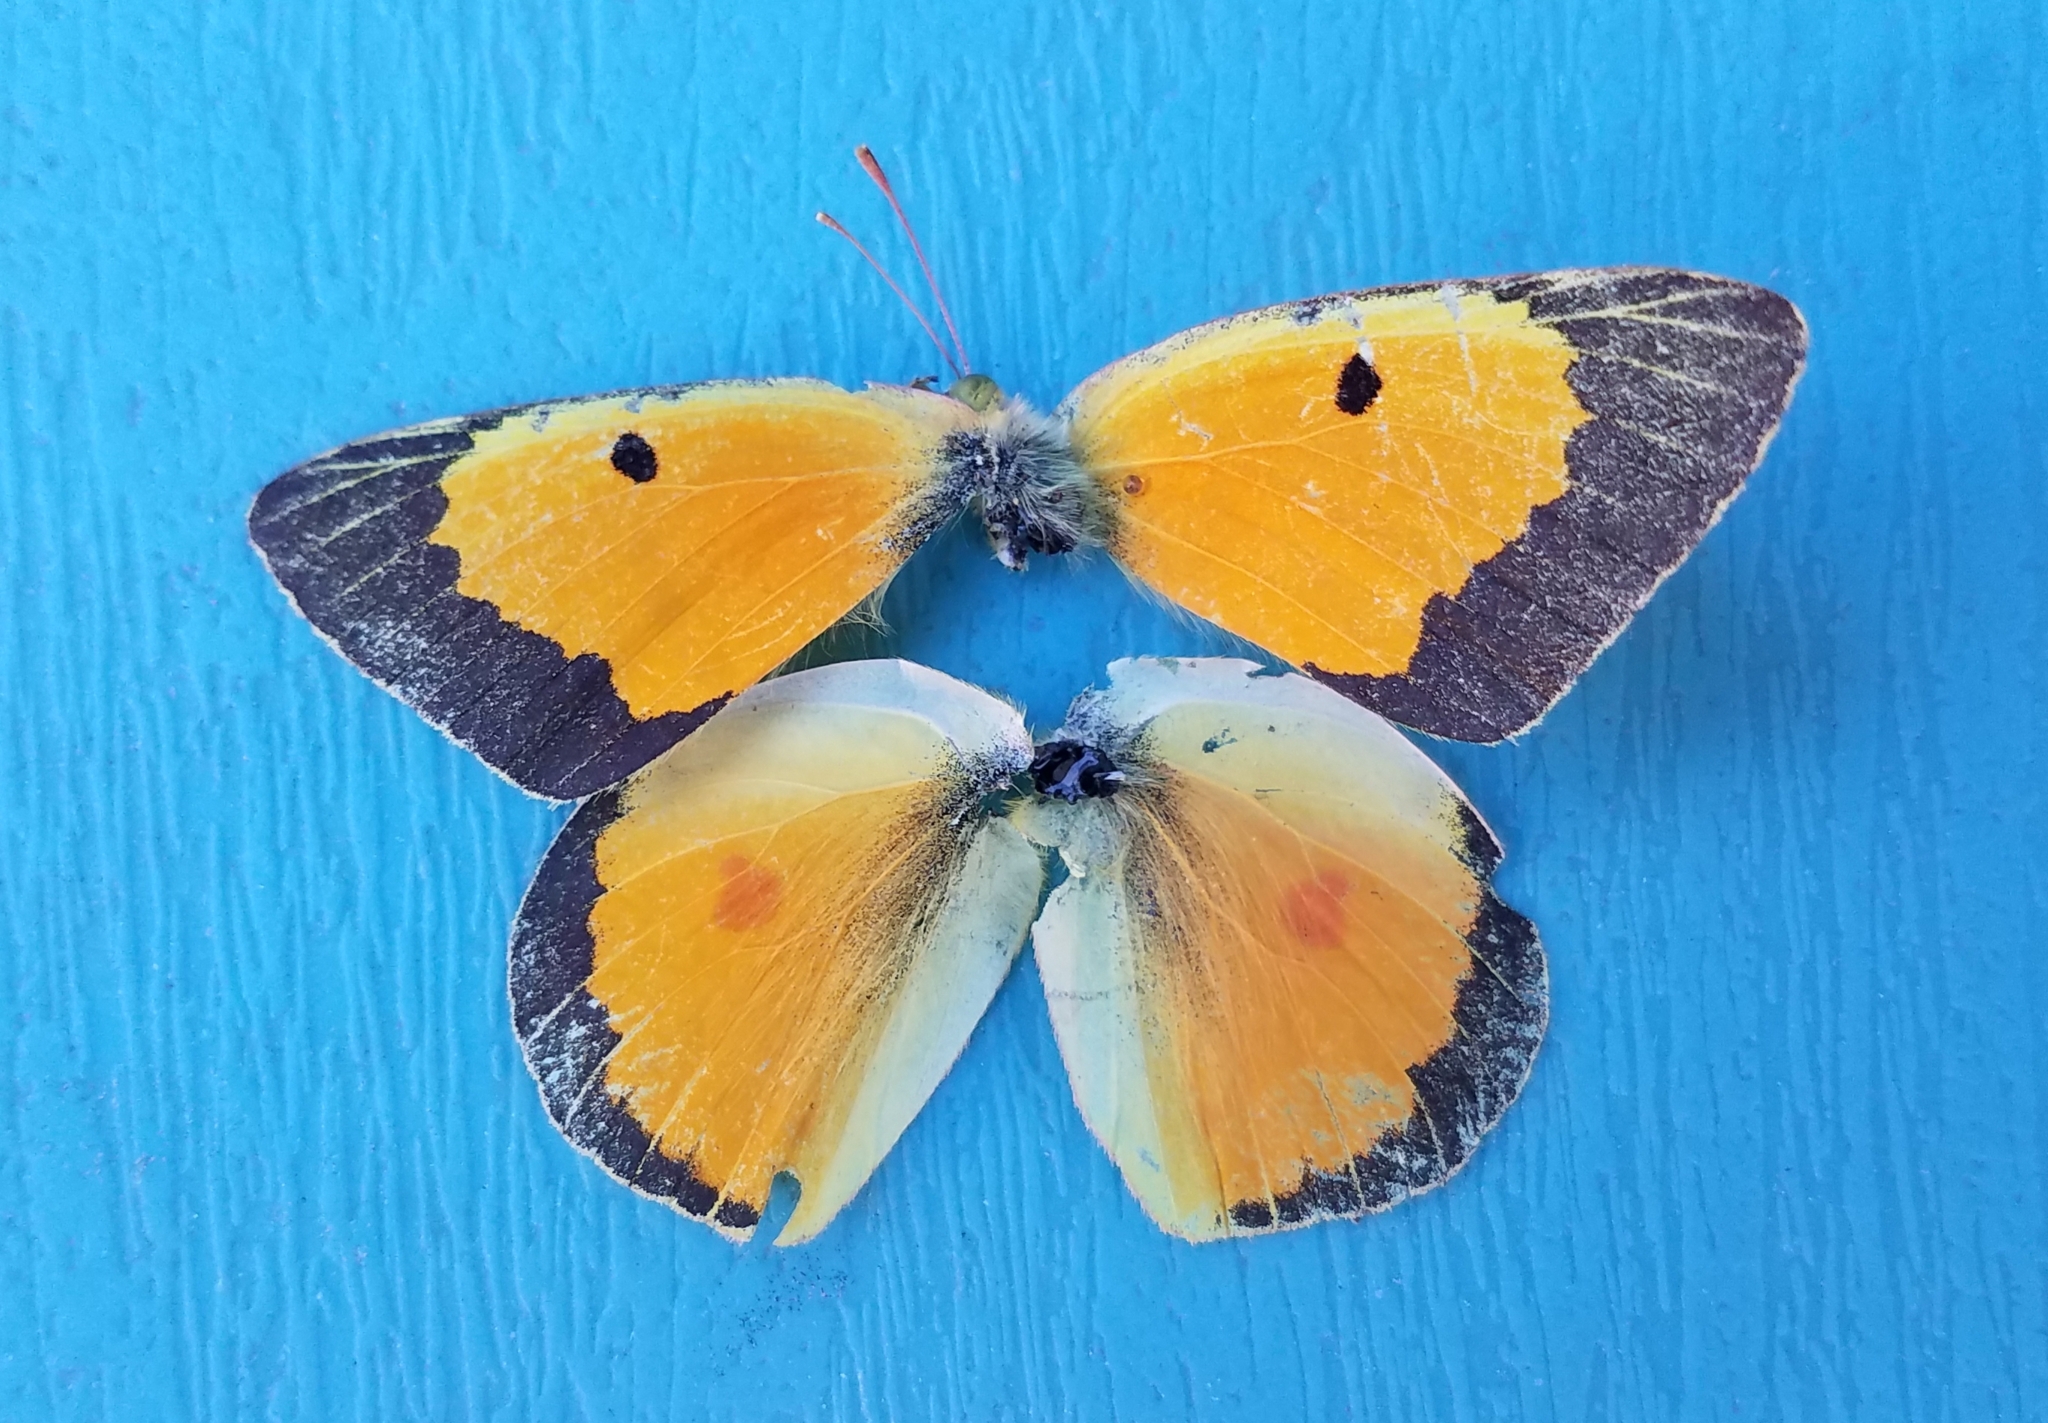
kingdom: Animalia
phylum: Arthropoda
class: Insecta
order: Lepidoptera
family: Pieridae
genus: Colias
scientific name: Colias eurytheme
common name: Alfalfa butterfly
